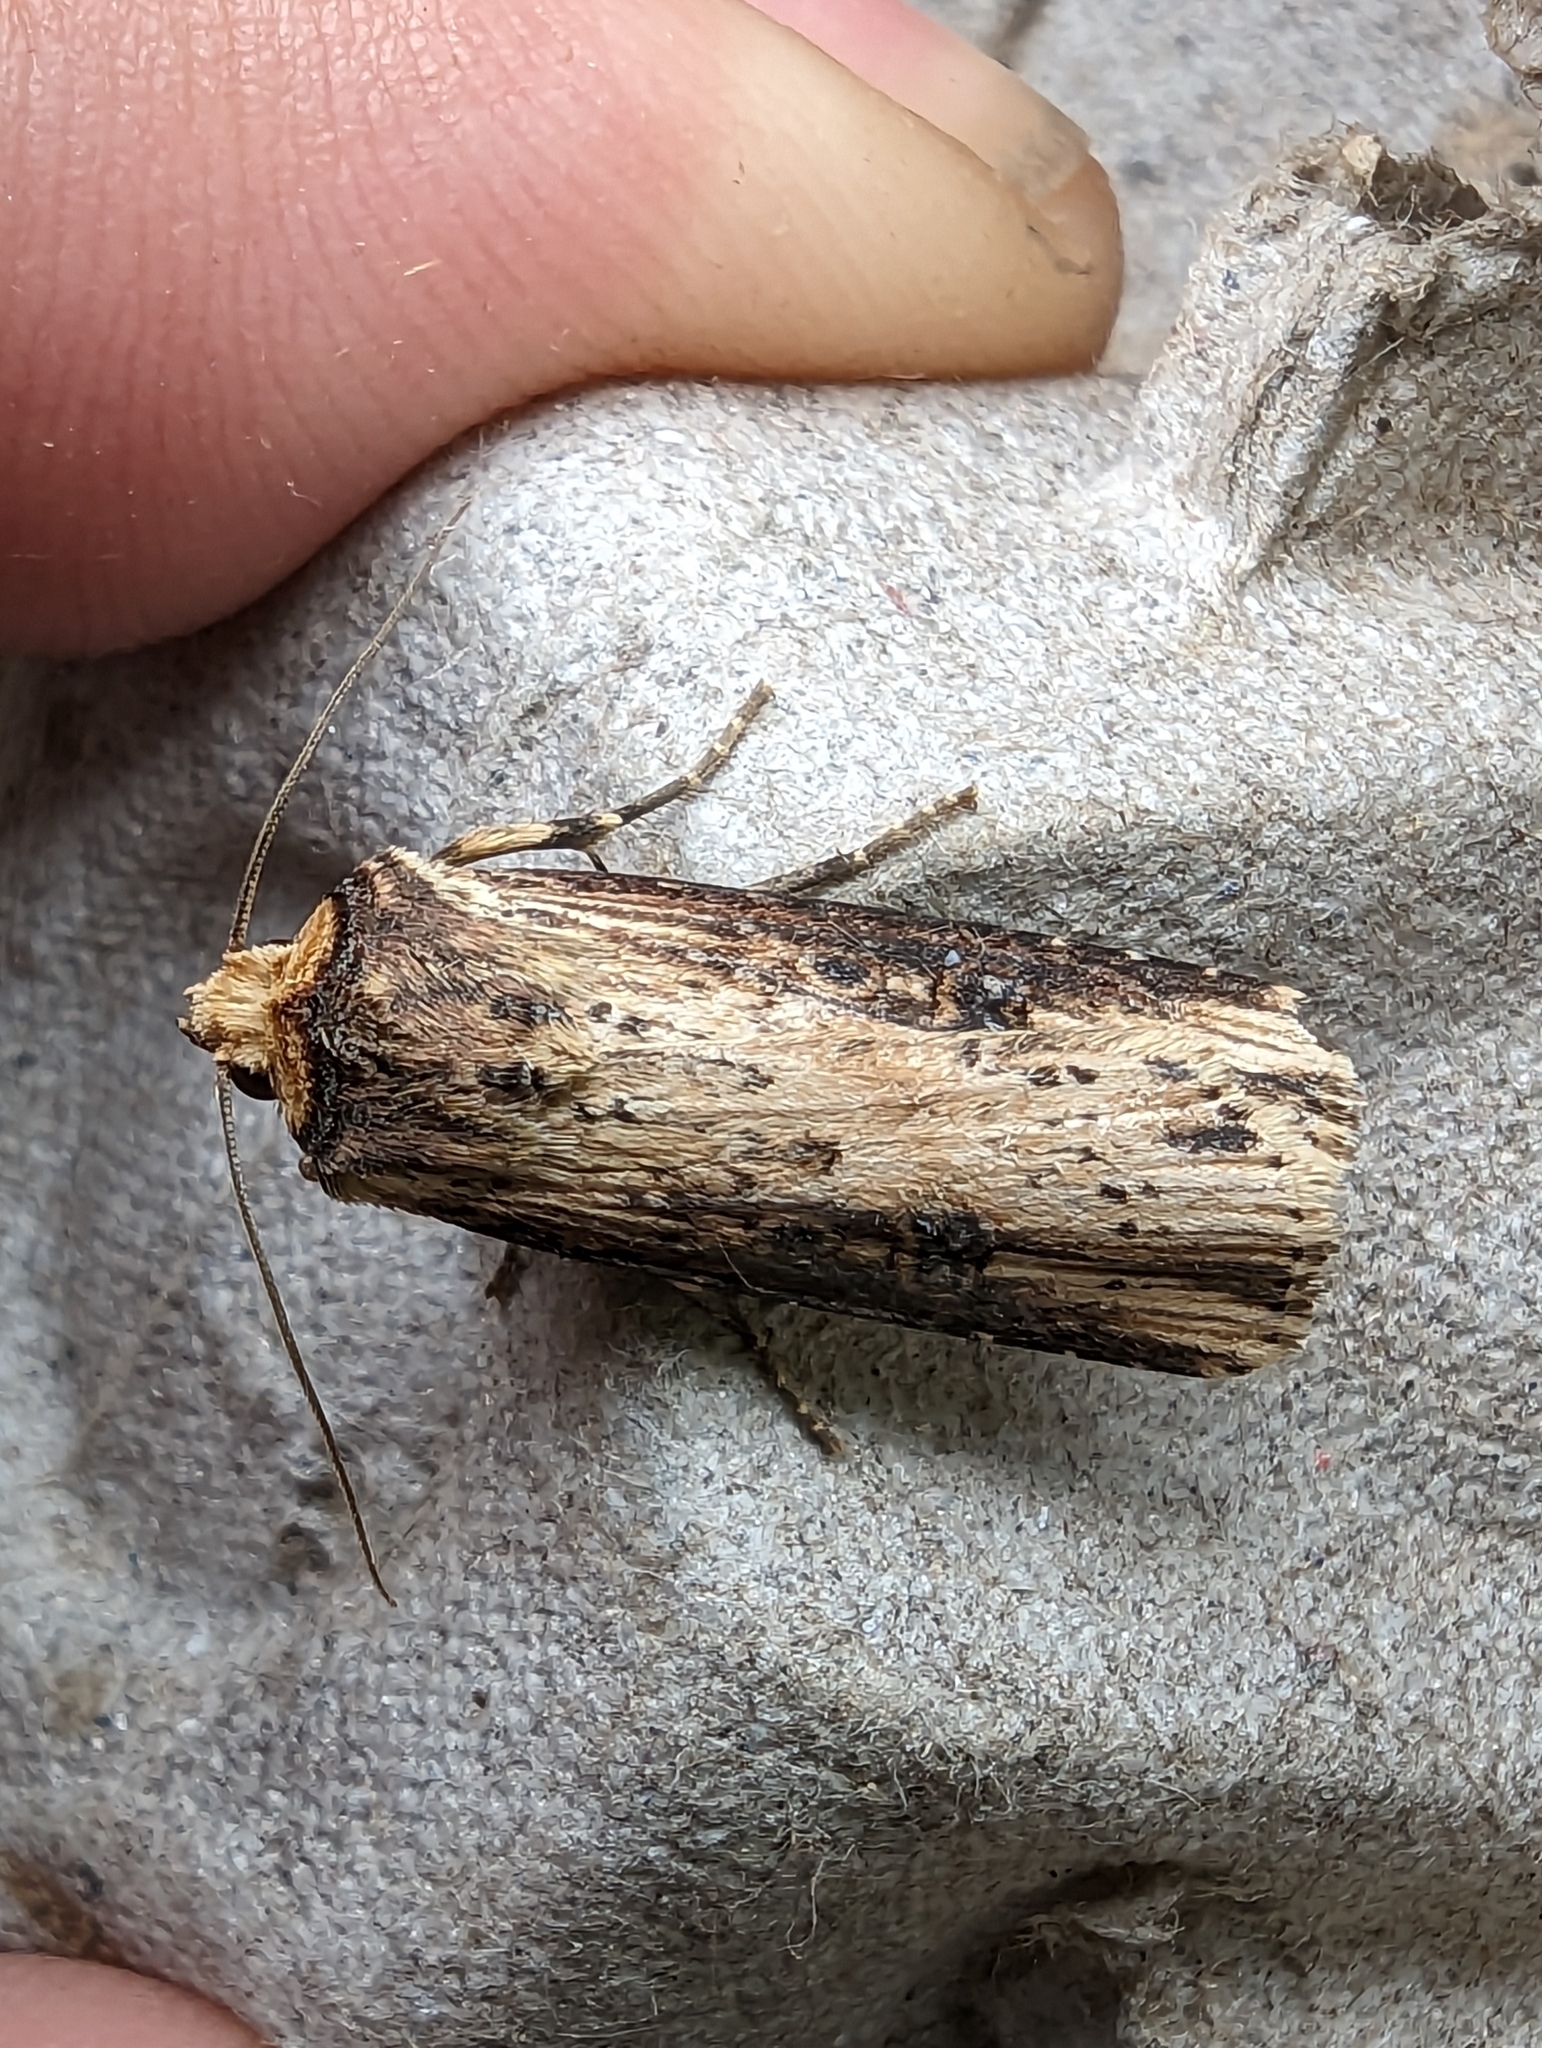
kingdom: Animalia
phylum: Arthropoda
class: Insecta
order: Lepidoptera
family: Noctuidae
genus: Axylia
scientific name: Axylia putris
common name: Flame
